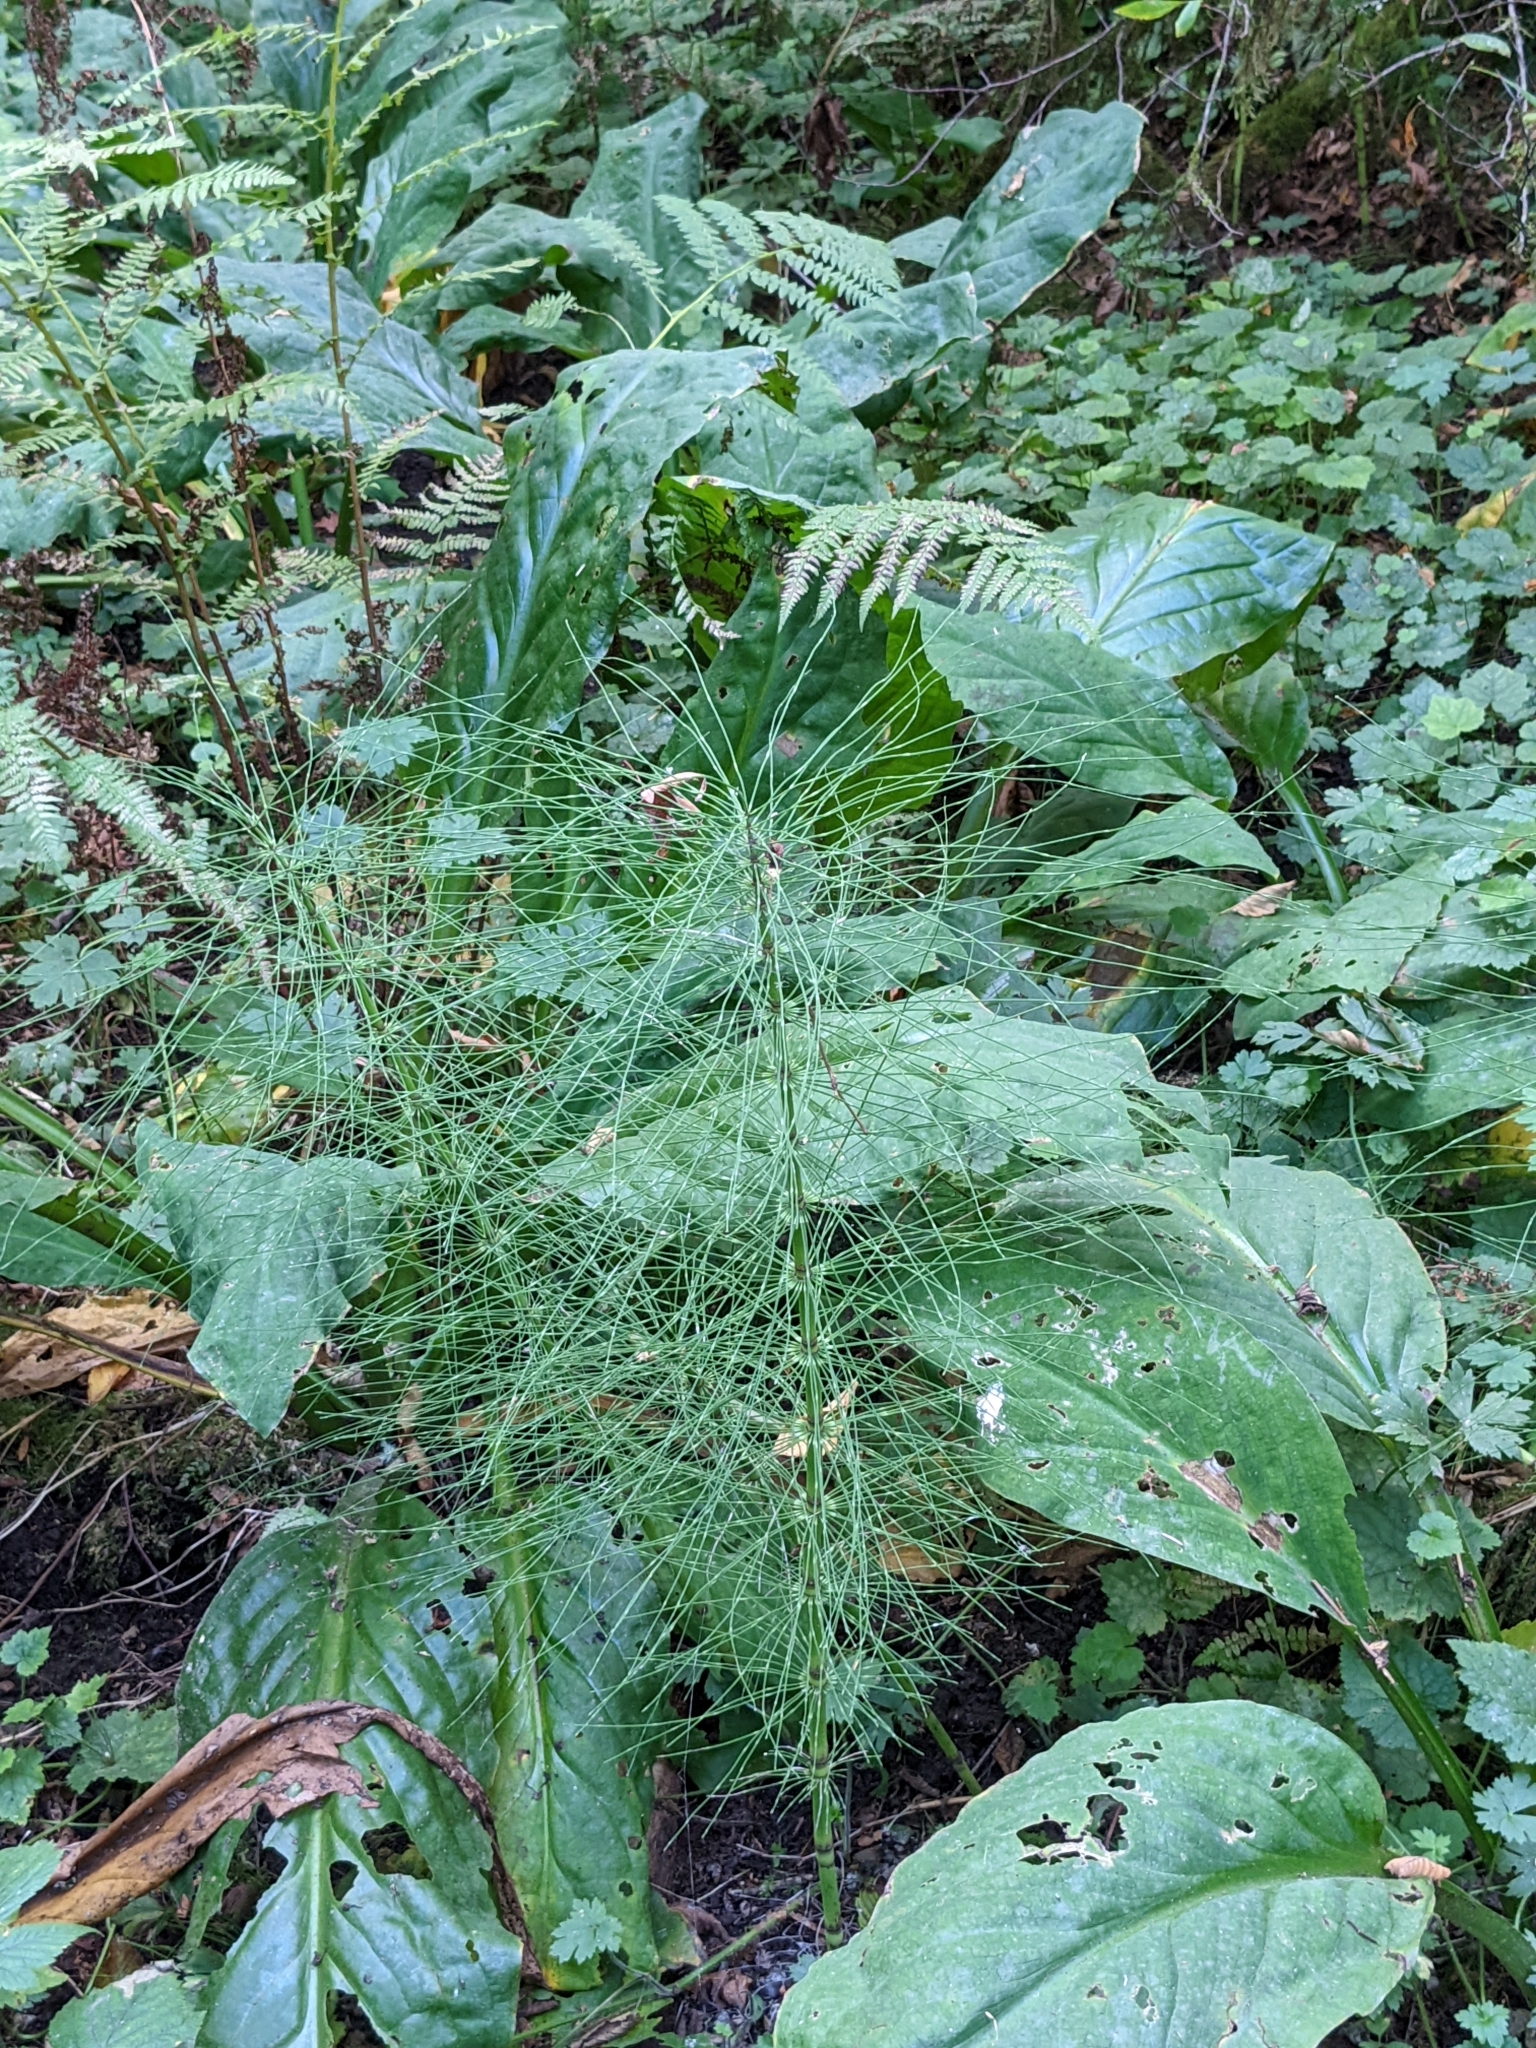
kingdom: Plantae
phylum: Tracheophyta
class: Polypodiopsida
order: Equisetales
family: Equisetaceae
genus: Equisetum
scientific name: Equisetum telmateia
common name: Great horsetail
